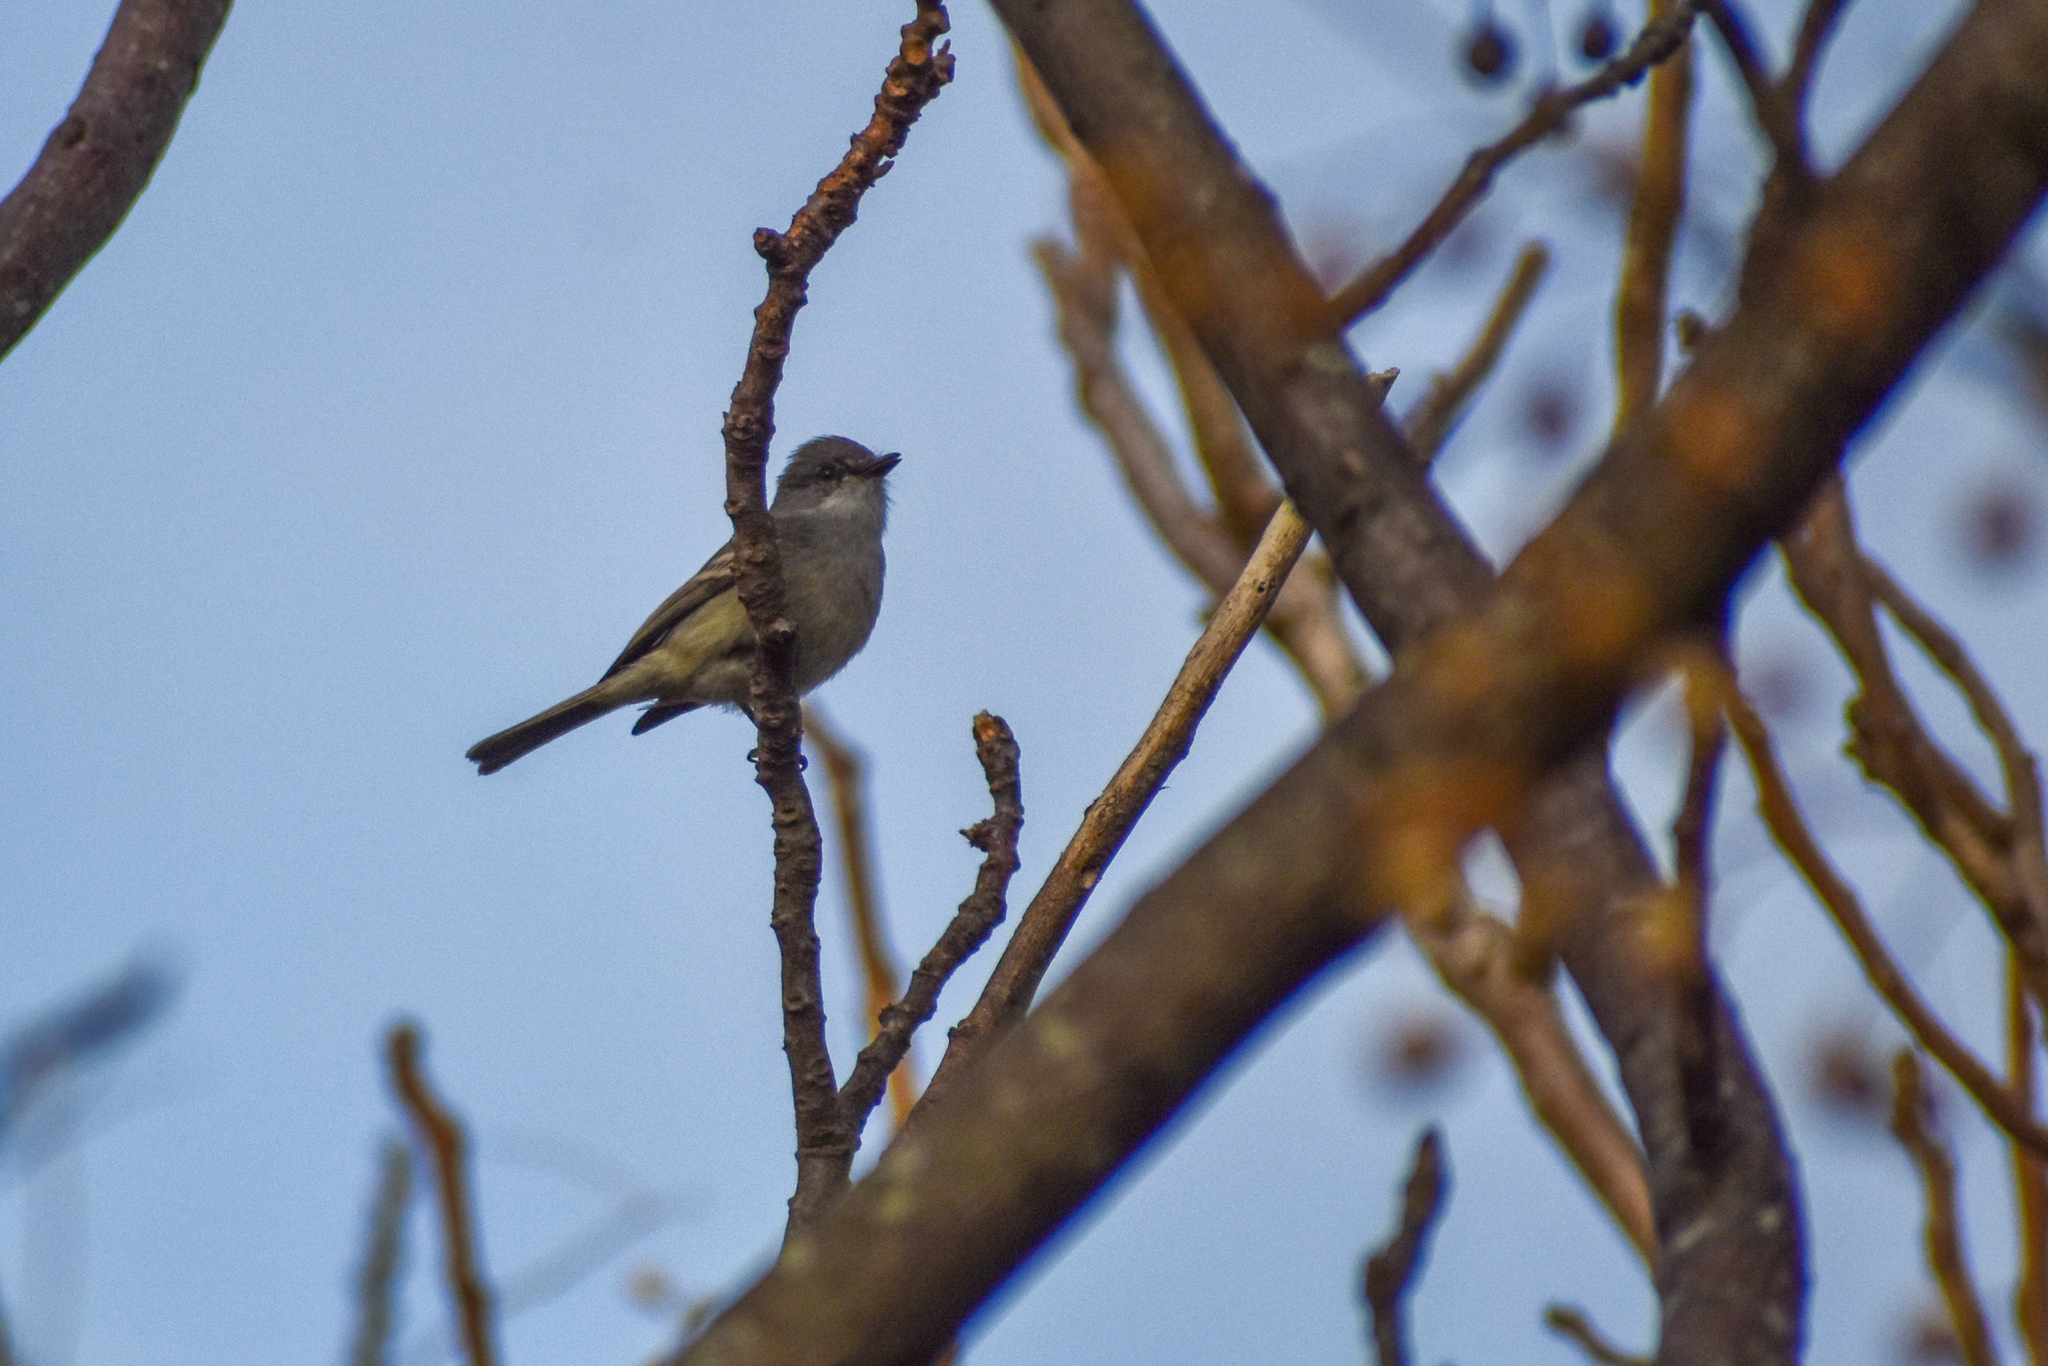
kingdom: Animalia
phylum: Chordata
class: Aves
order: Passeriformes
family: Tyrannidae
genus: Suiriri
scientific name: Suiriri suiriri
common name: Suiriri flycatcher
